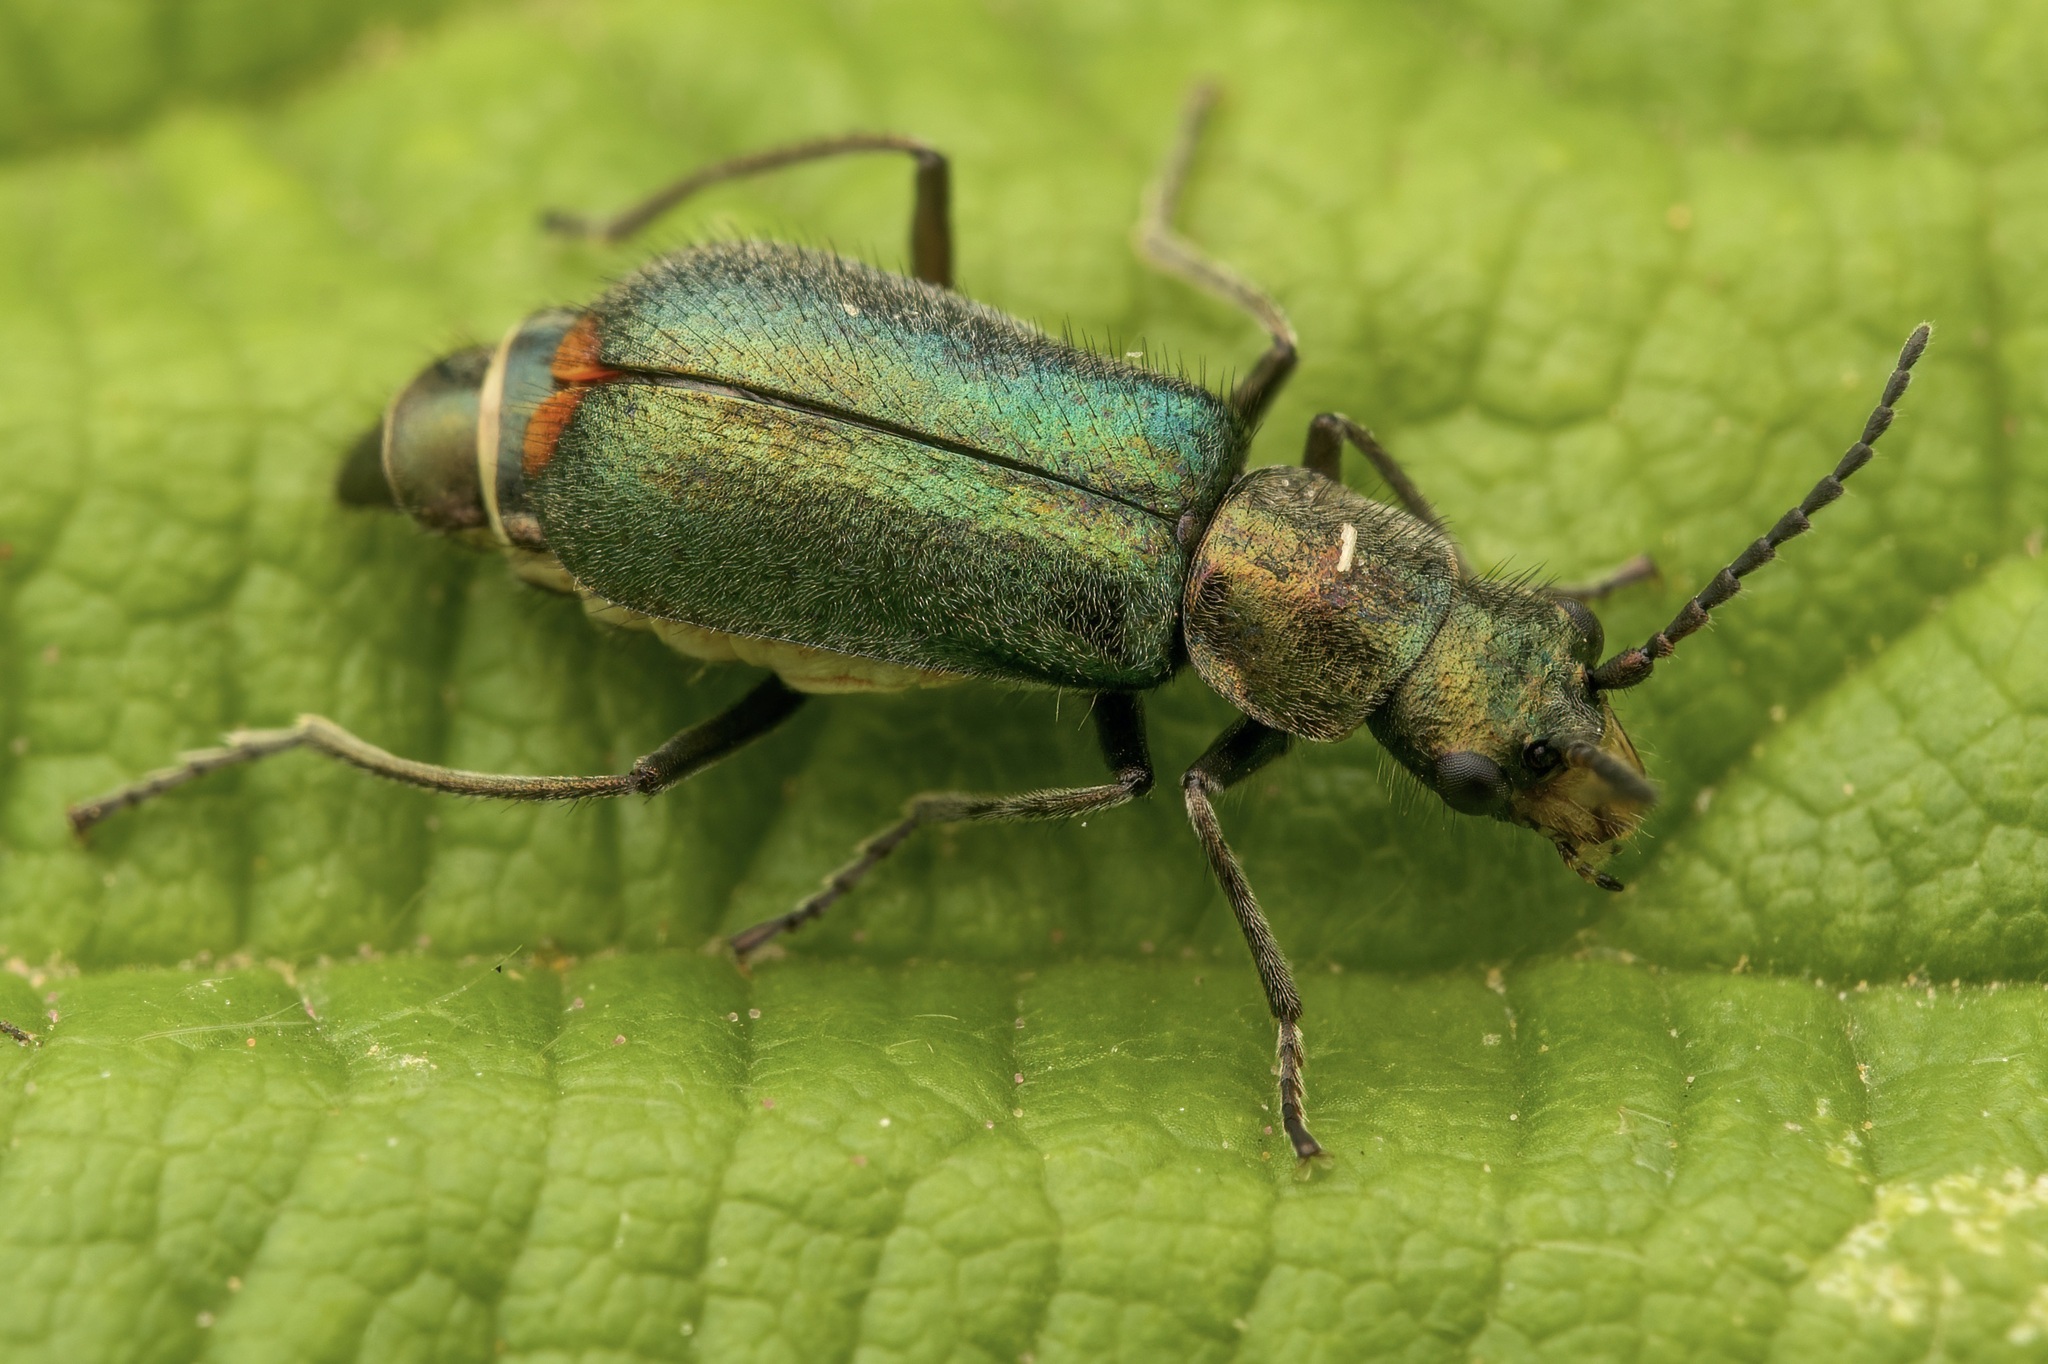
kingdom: Animalia
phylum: Arthropoda
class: Insecta
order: Coleoptera
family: Malachiidae
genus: Cordylepherus
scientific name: Cordylepherus viridis
